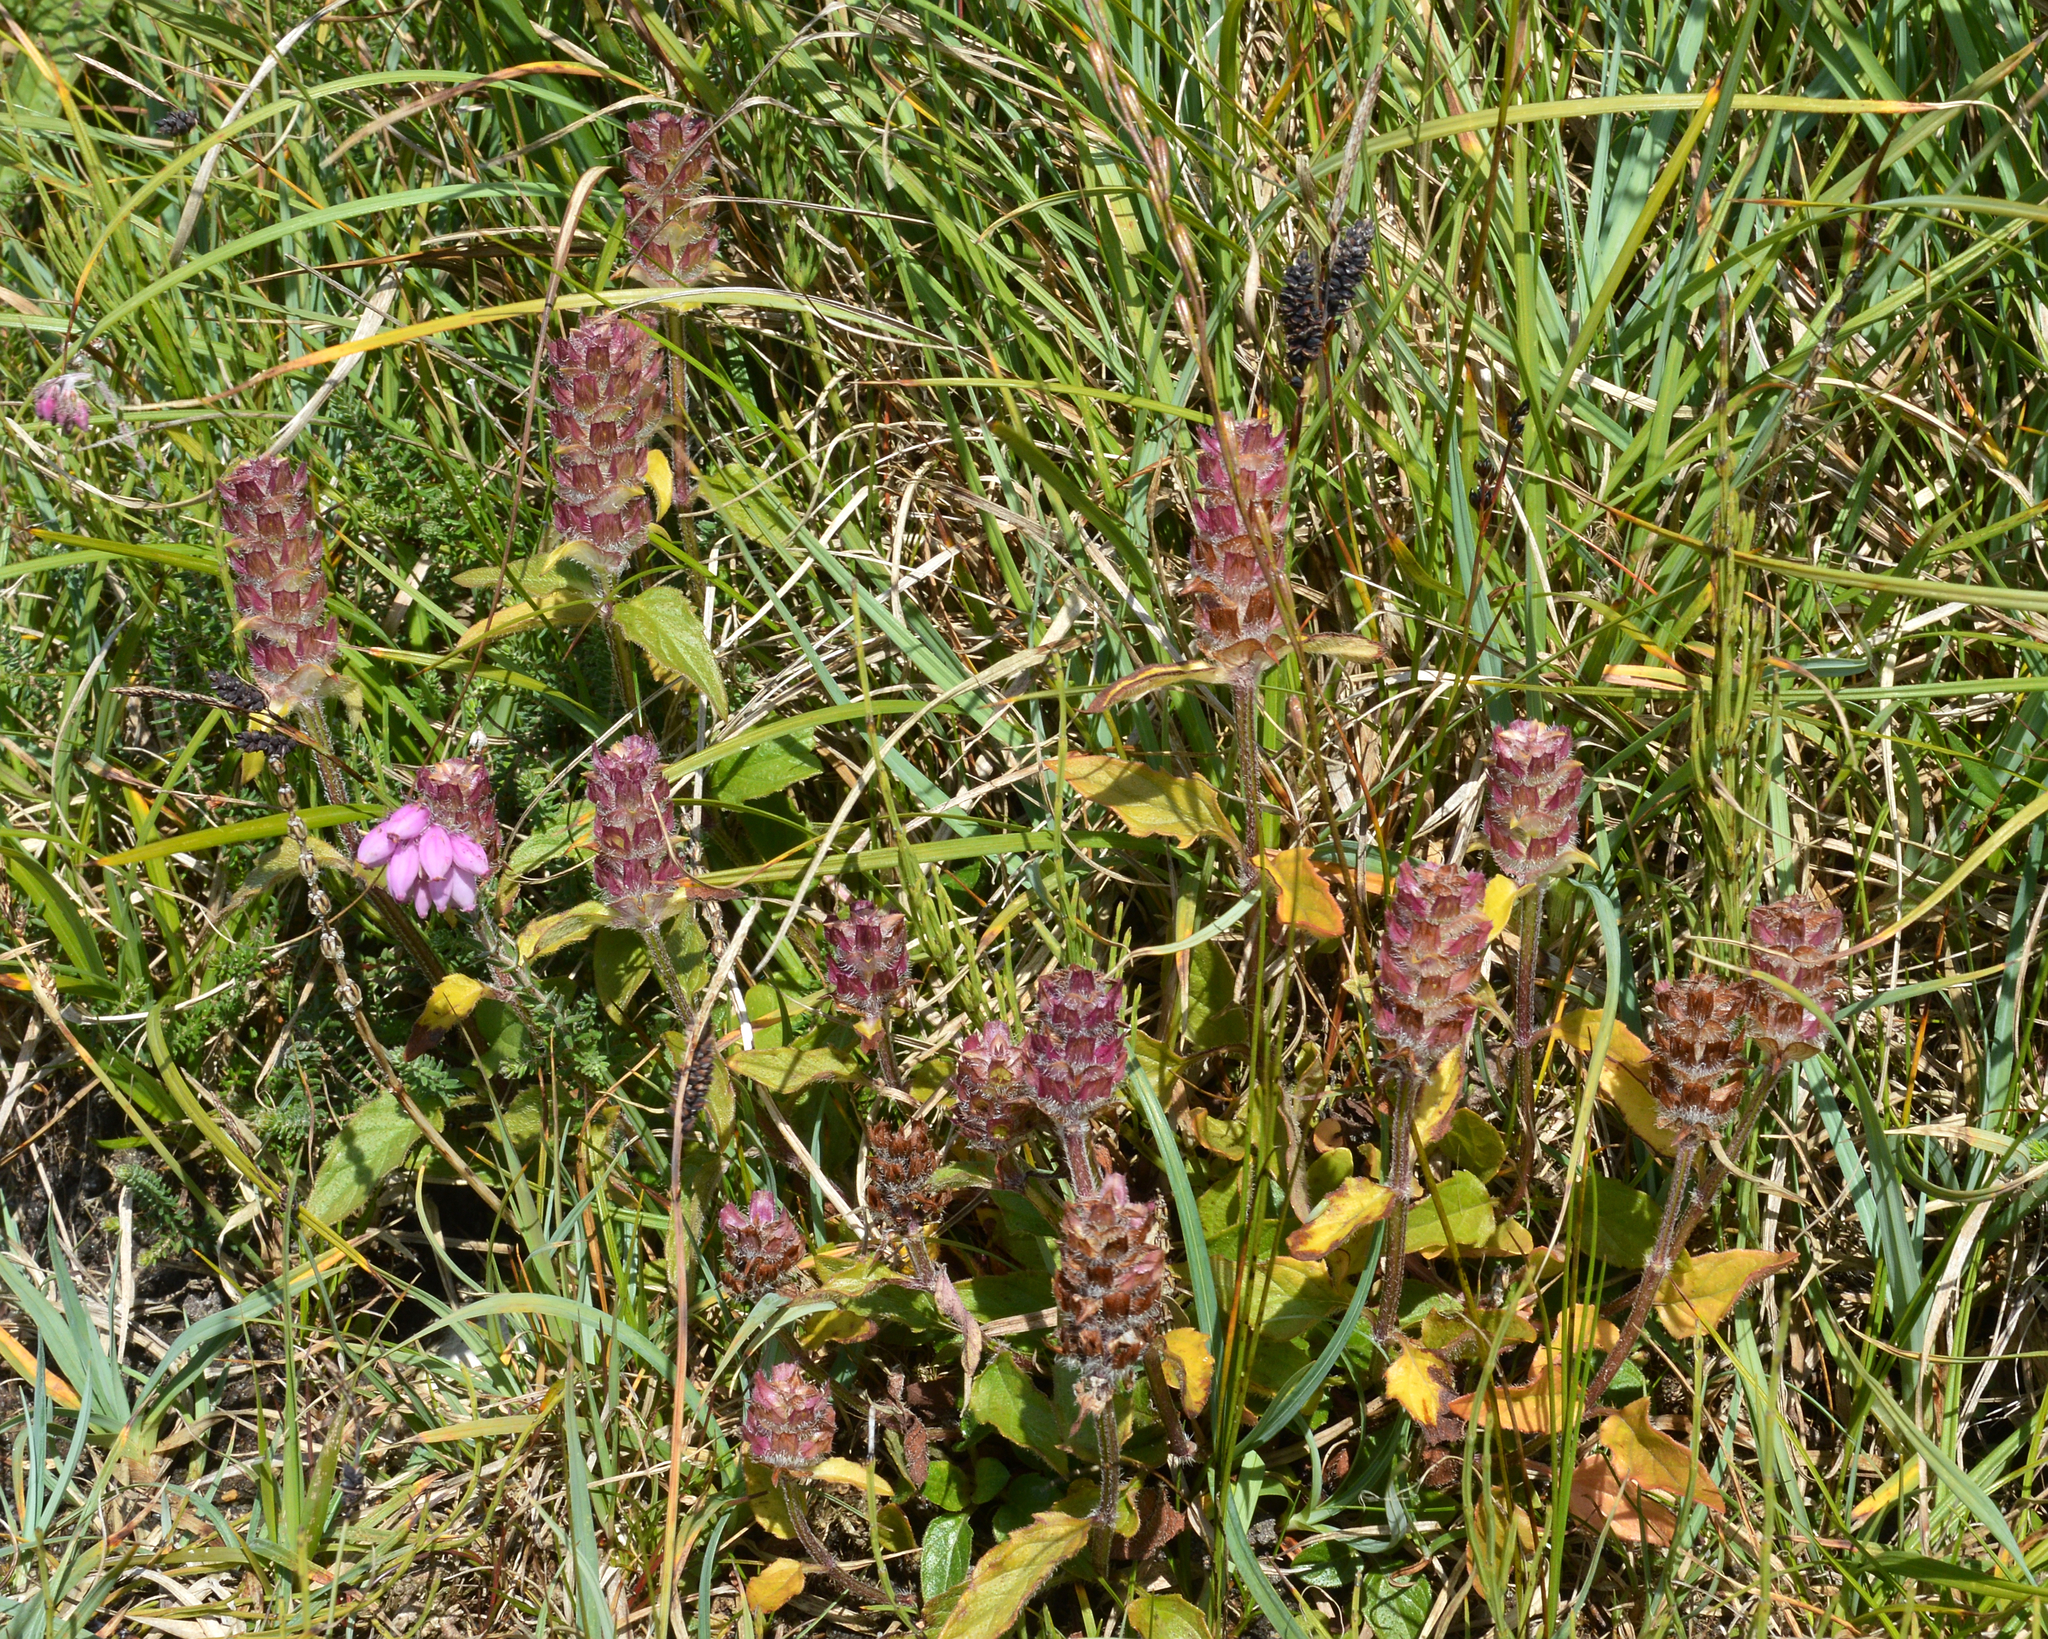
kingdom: Plantae
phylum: Tracheophyta
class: Magnoliopsida
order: Lamiales
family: Lamiaceae
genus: Prunella
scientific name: Prunella vulgaris
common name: Heal-all
